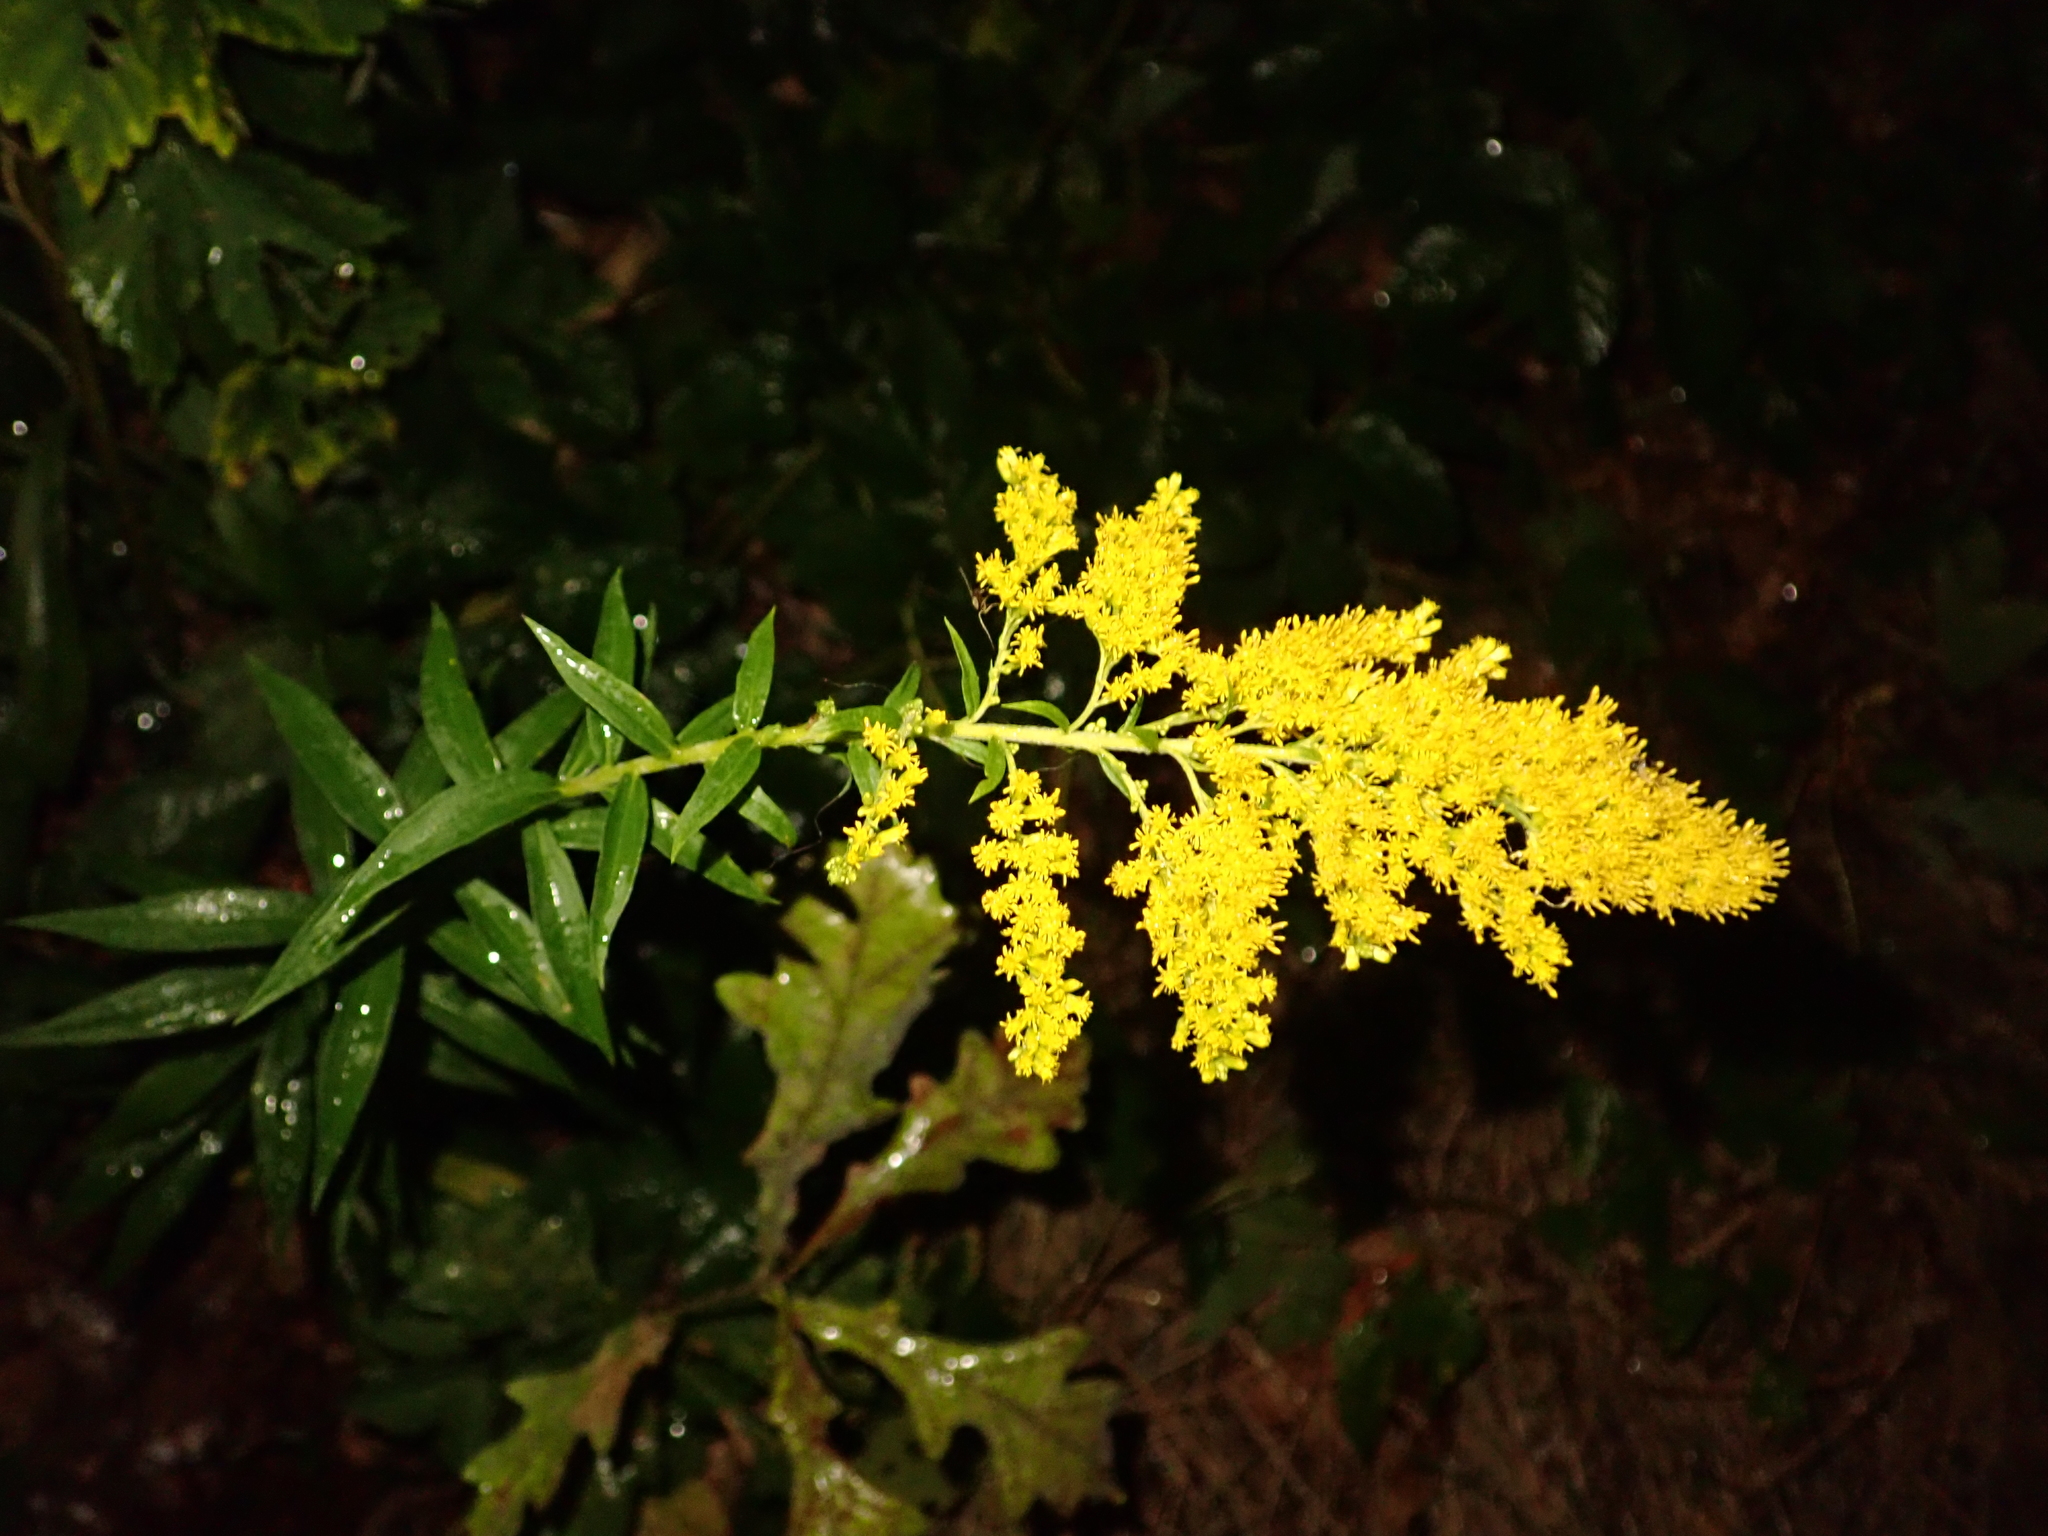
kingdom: Plantae
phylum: Tracheophyta
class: Magnoliopsida
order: Asterales
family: Asteraceae
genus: Solidago
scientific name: Solidago canadensis
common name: Canada goldenrod
